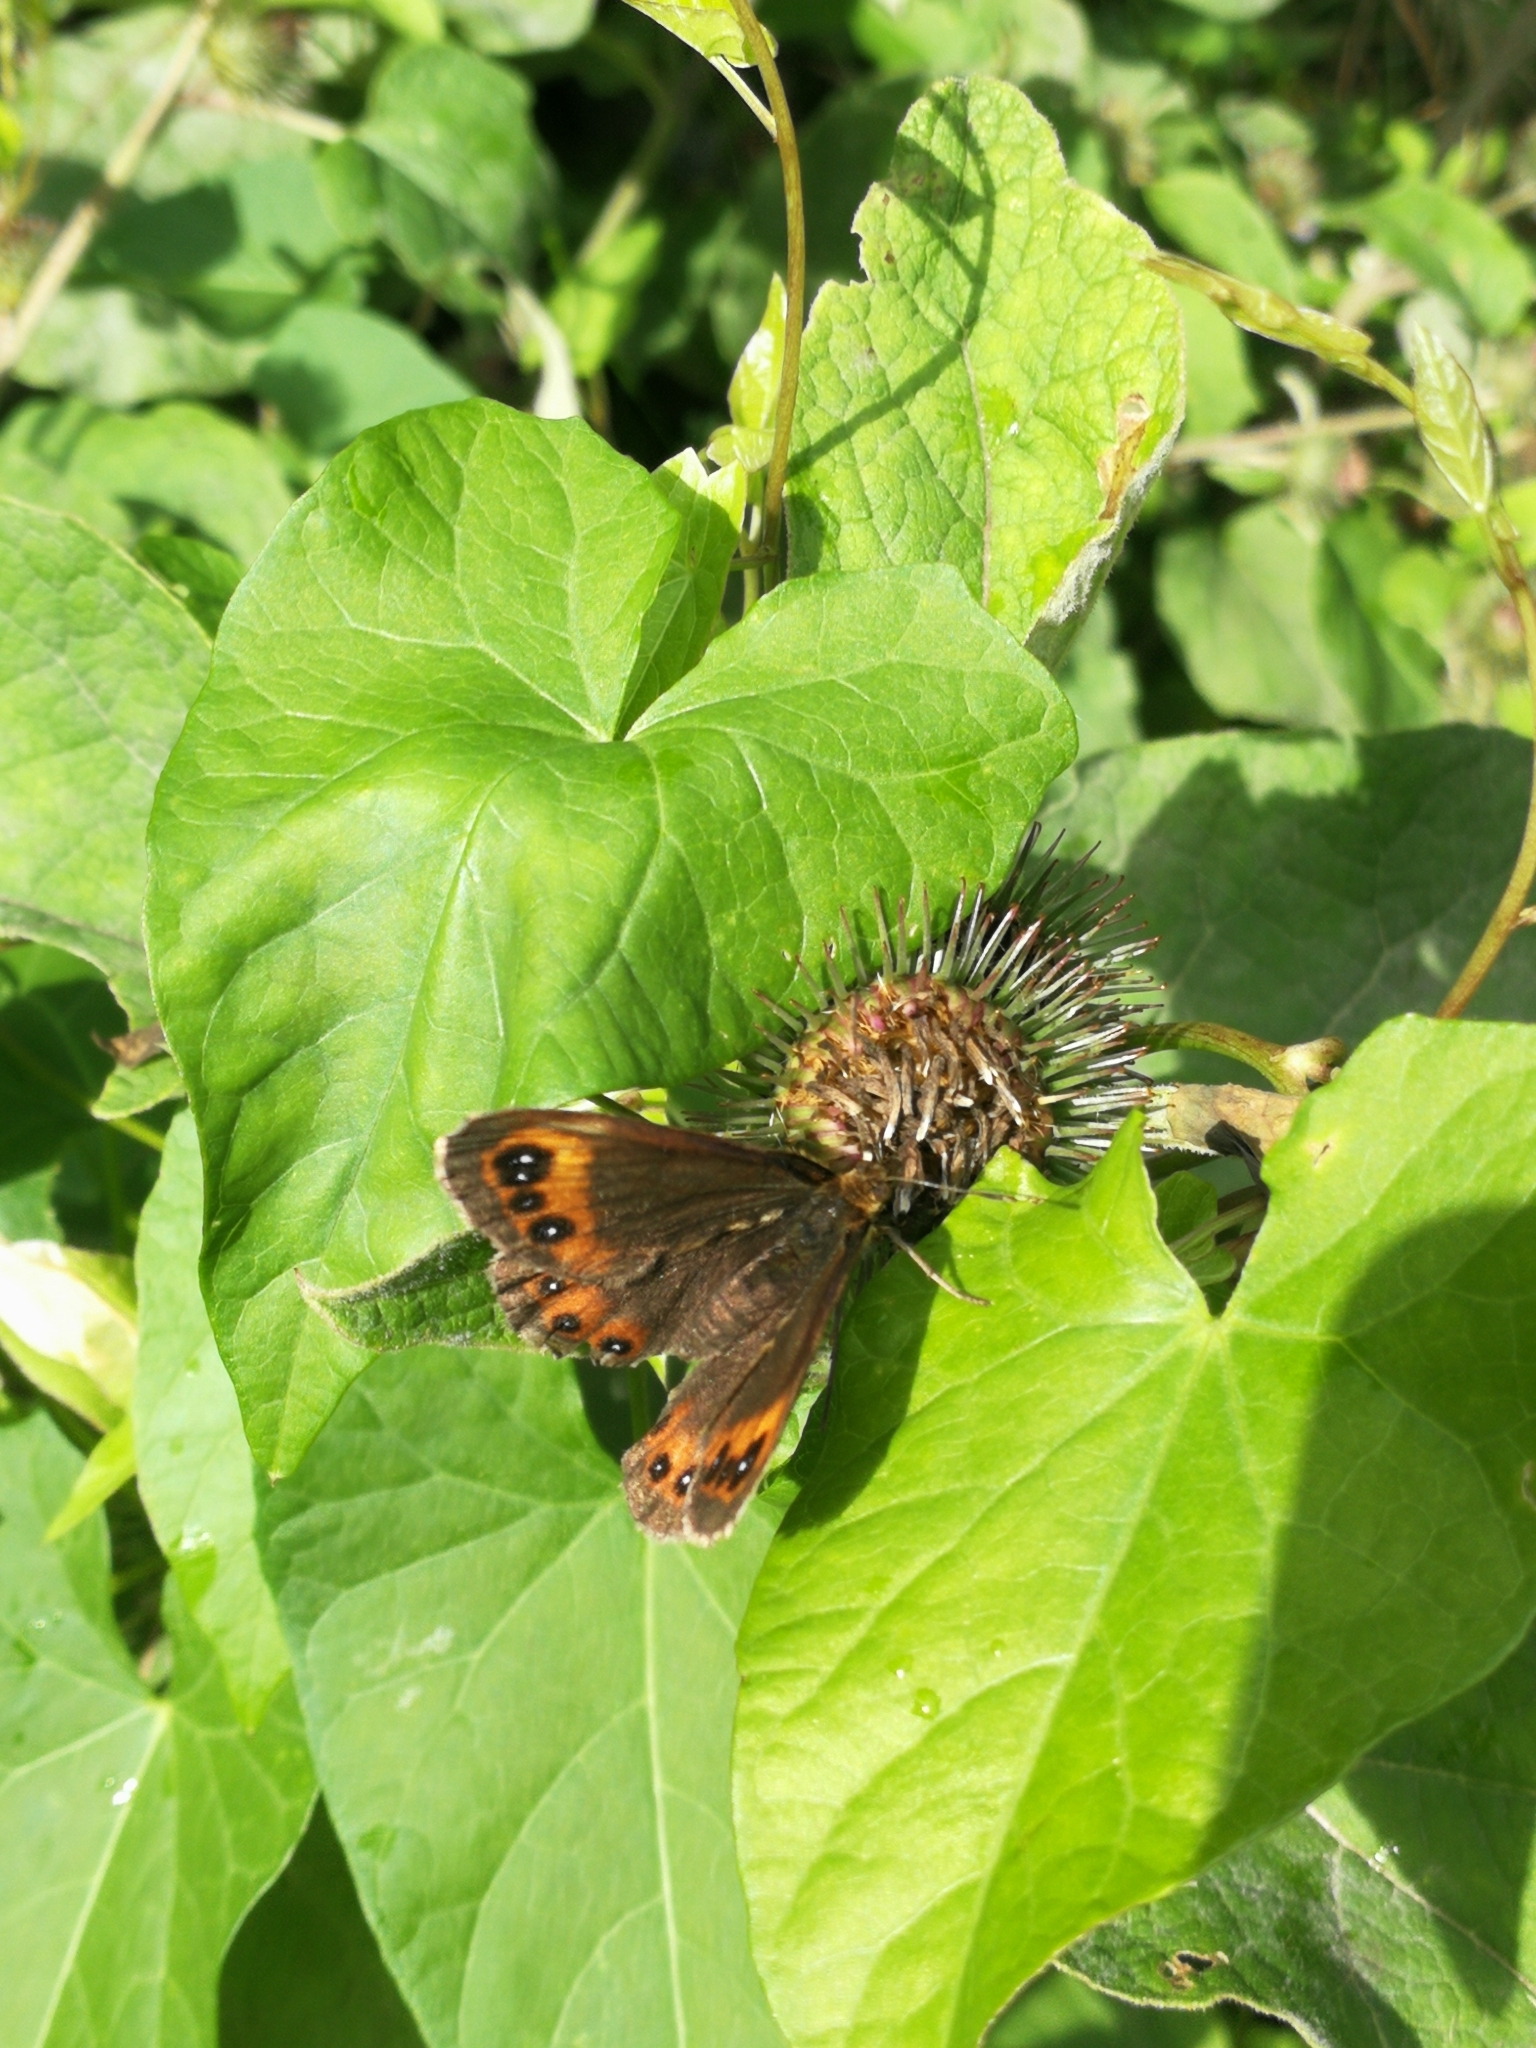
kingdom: Animalia
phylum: Arthropoda
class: Insecta
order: Lepidoptera
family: Nymphalidae
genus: Erebia
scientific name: Erebia aethiops
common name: Scotch argus
